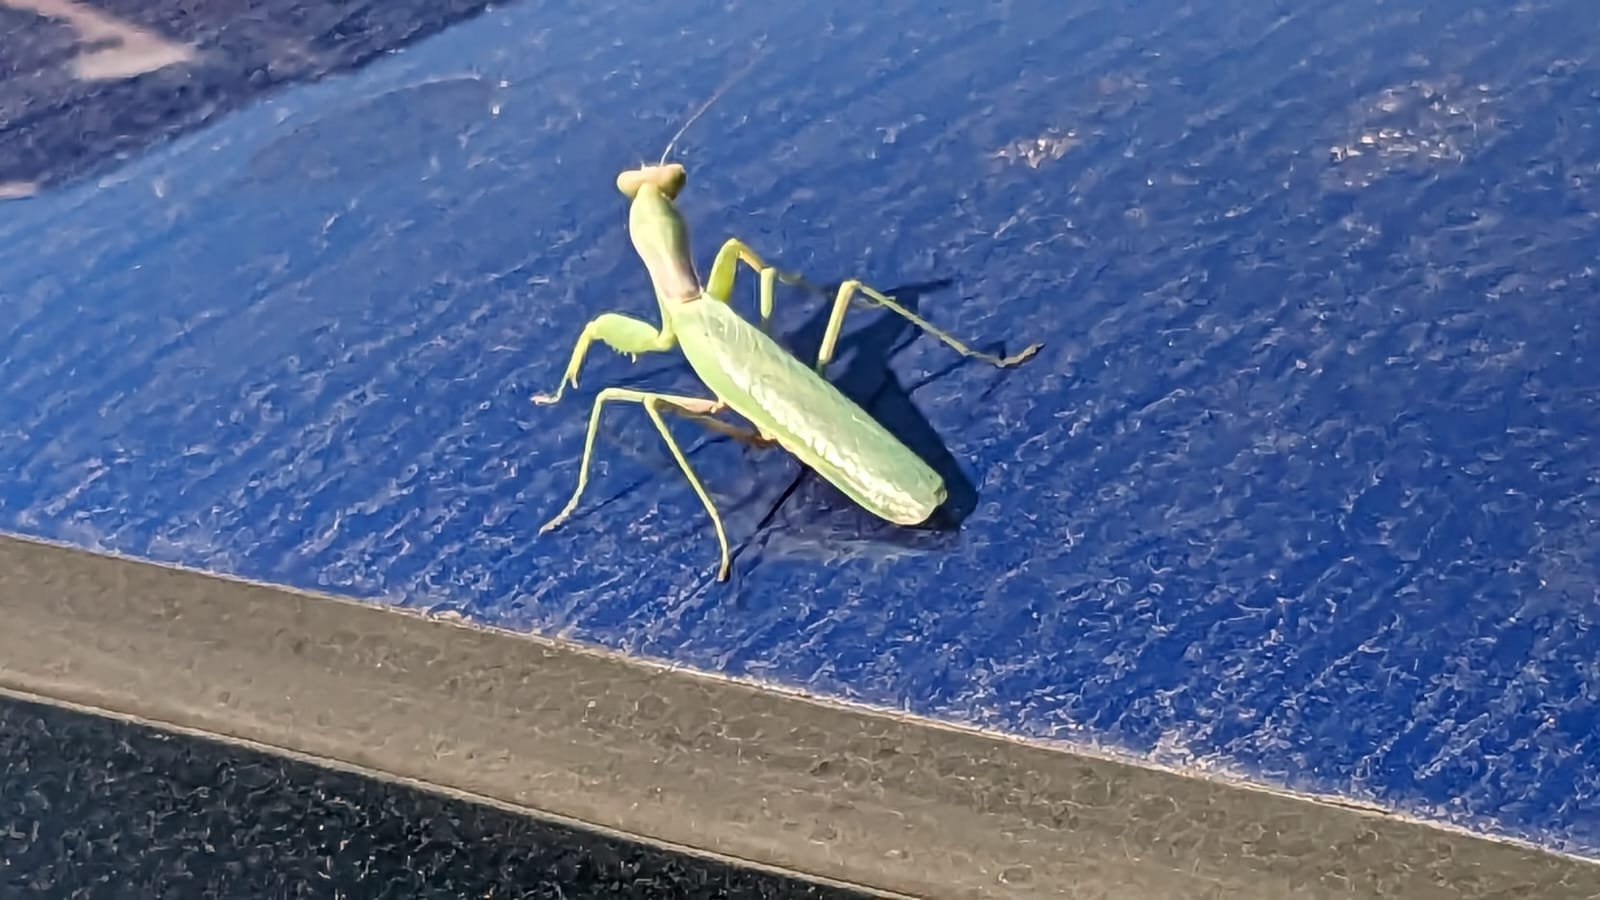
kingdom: Animalia
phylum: Arthropoda
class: Insecta
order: Mantodea
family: Mantidae
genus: Hierodula
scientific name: Hierodula transcaucasica
